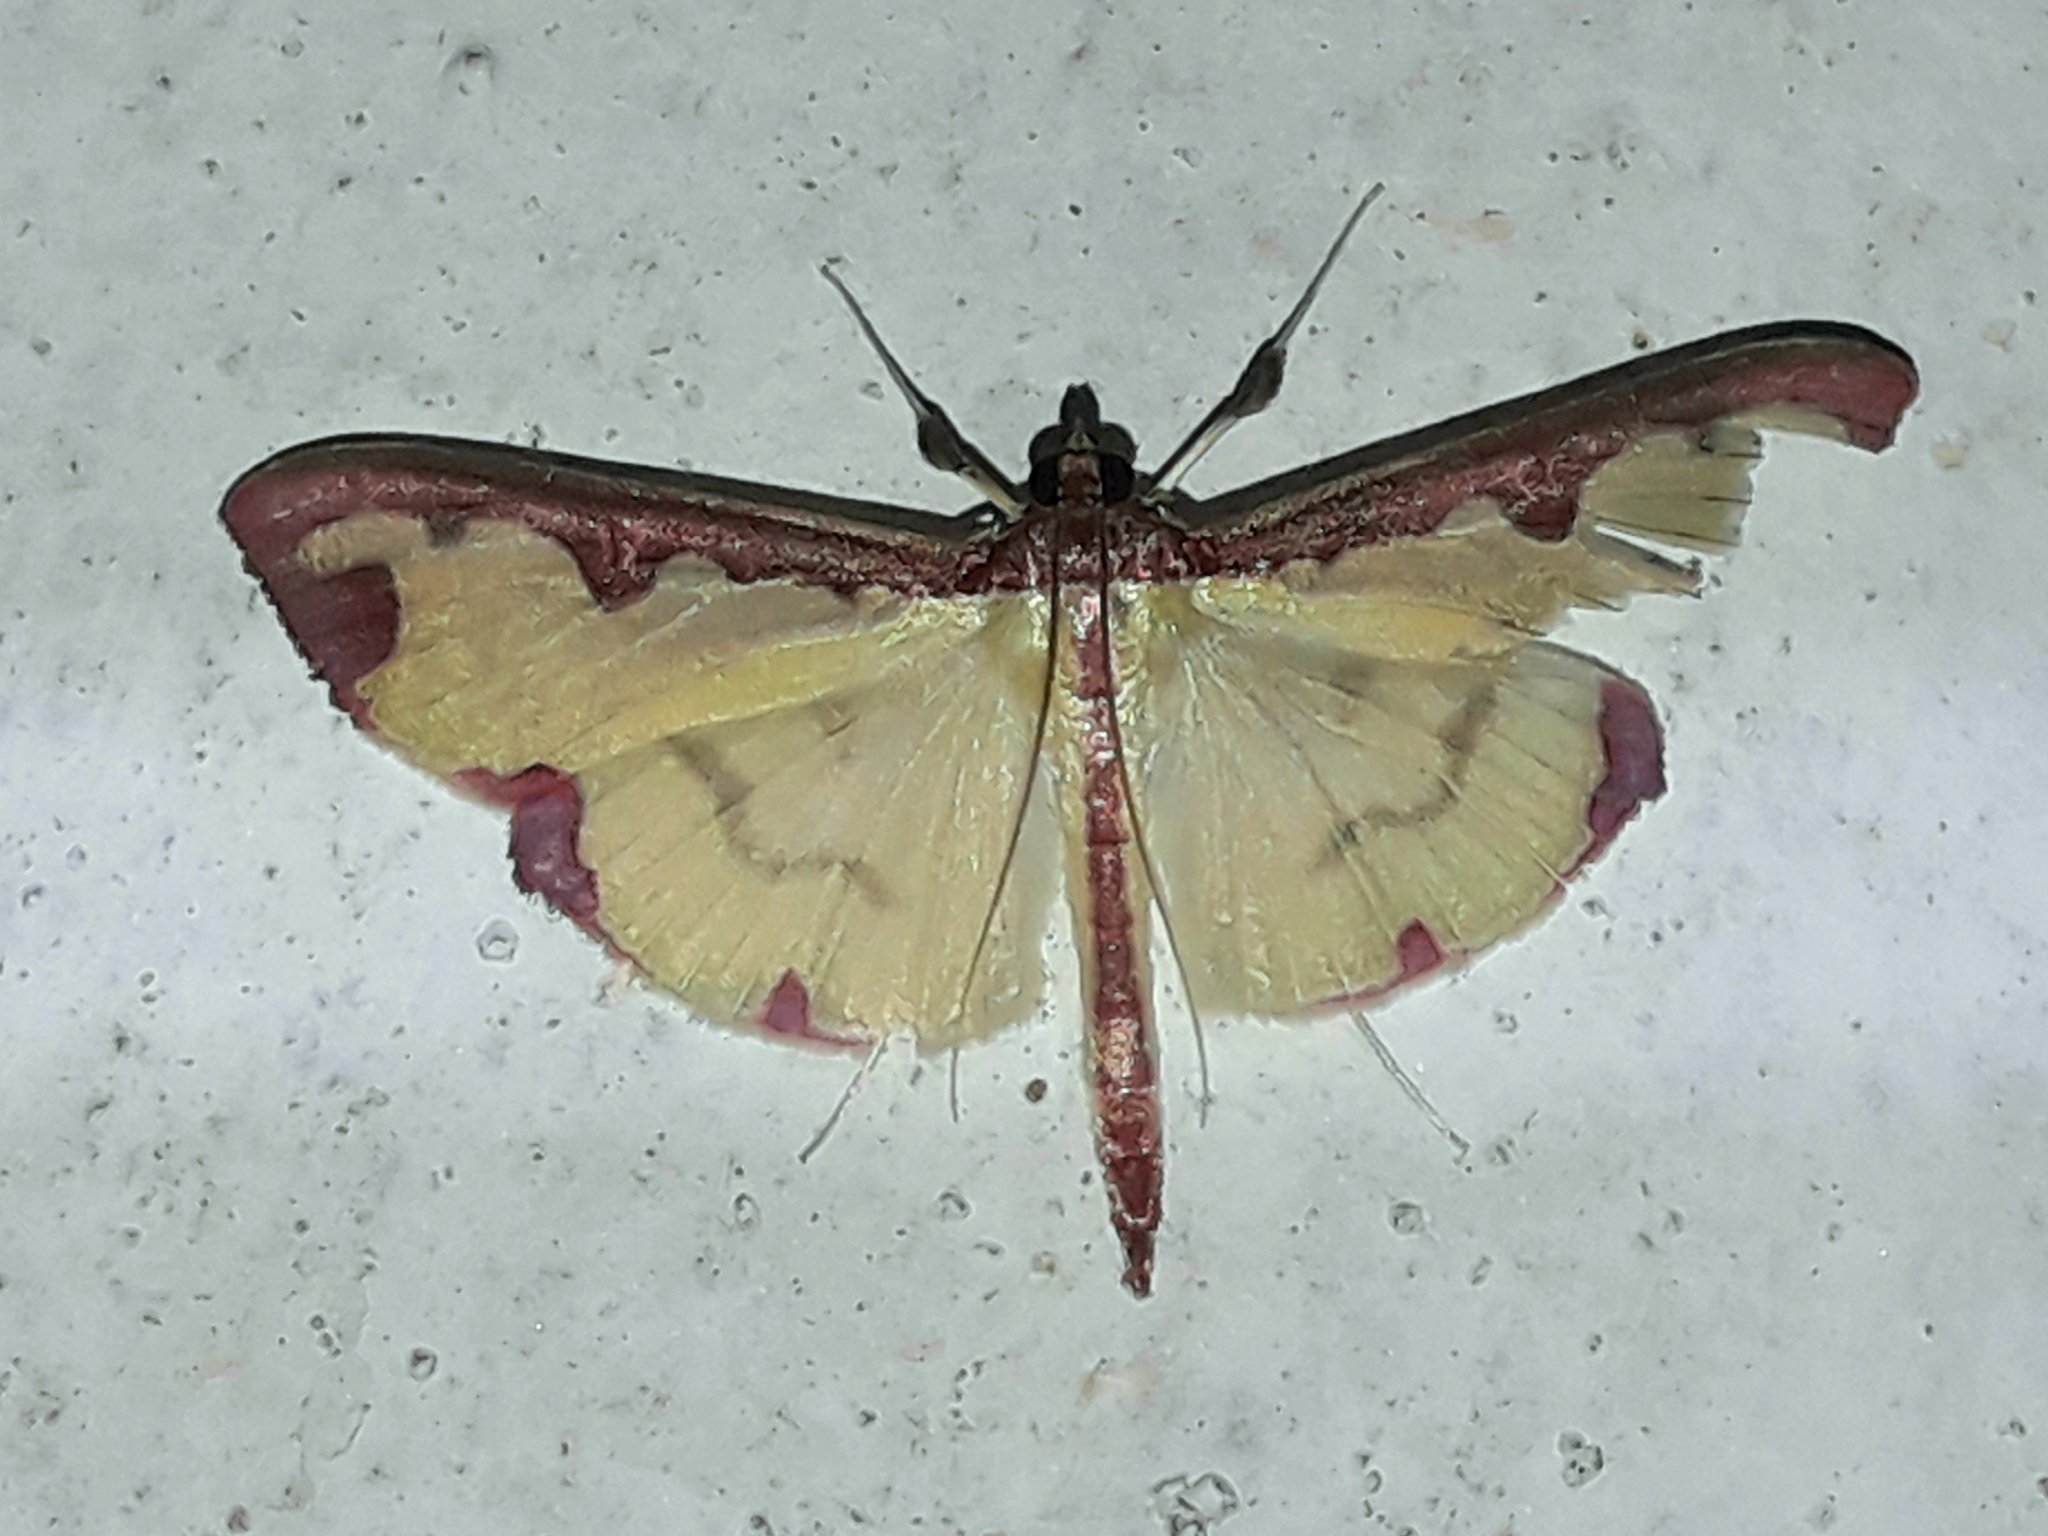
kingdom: Animalia
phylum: Arthropoda
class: Insecta
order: Lepidoptera
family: Crambidae
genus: Cadarena
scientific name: Cadarena pudoraria
